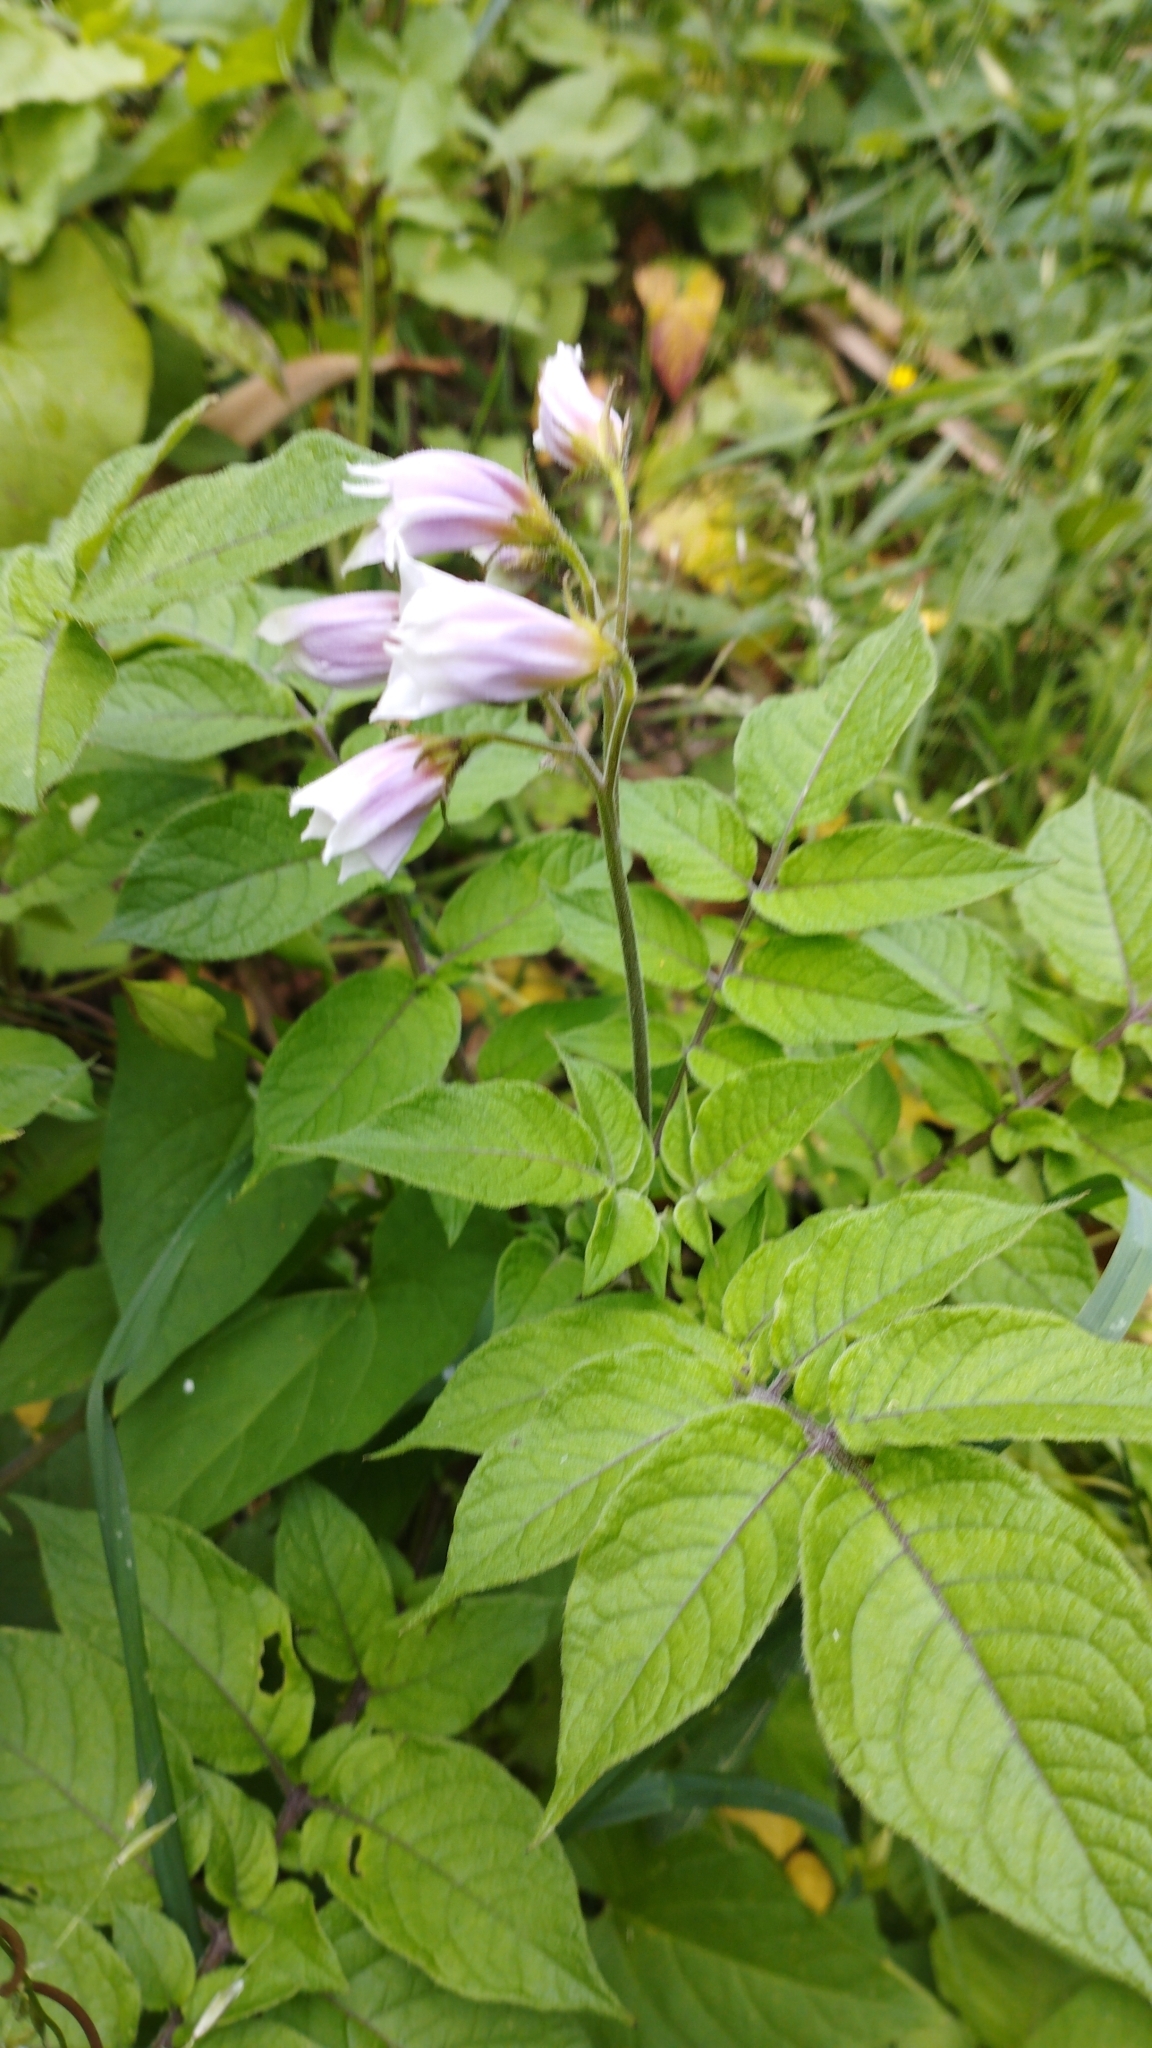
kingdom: Plantae
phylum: Tracheophyta
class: Magnoliopsida
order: Solanales
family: Solanaceae
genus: Solanum
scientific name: Solanum tuberosum
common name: Potato
